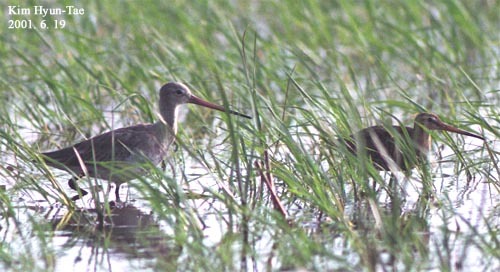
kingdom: Animalia
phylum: Chordata
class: Aves
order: Charadriiformes
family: Scolopacidae
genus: Limosa
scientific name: Limosa limosa
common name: Black-tailed godwit
